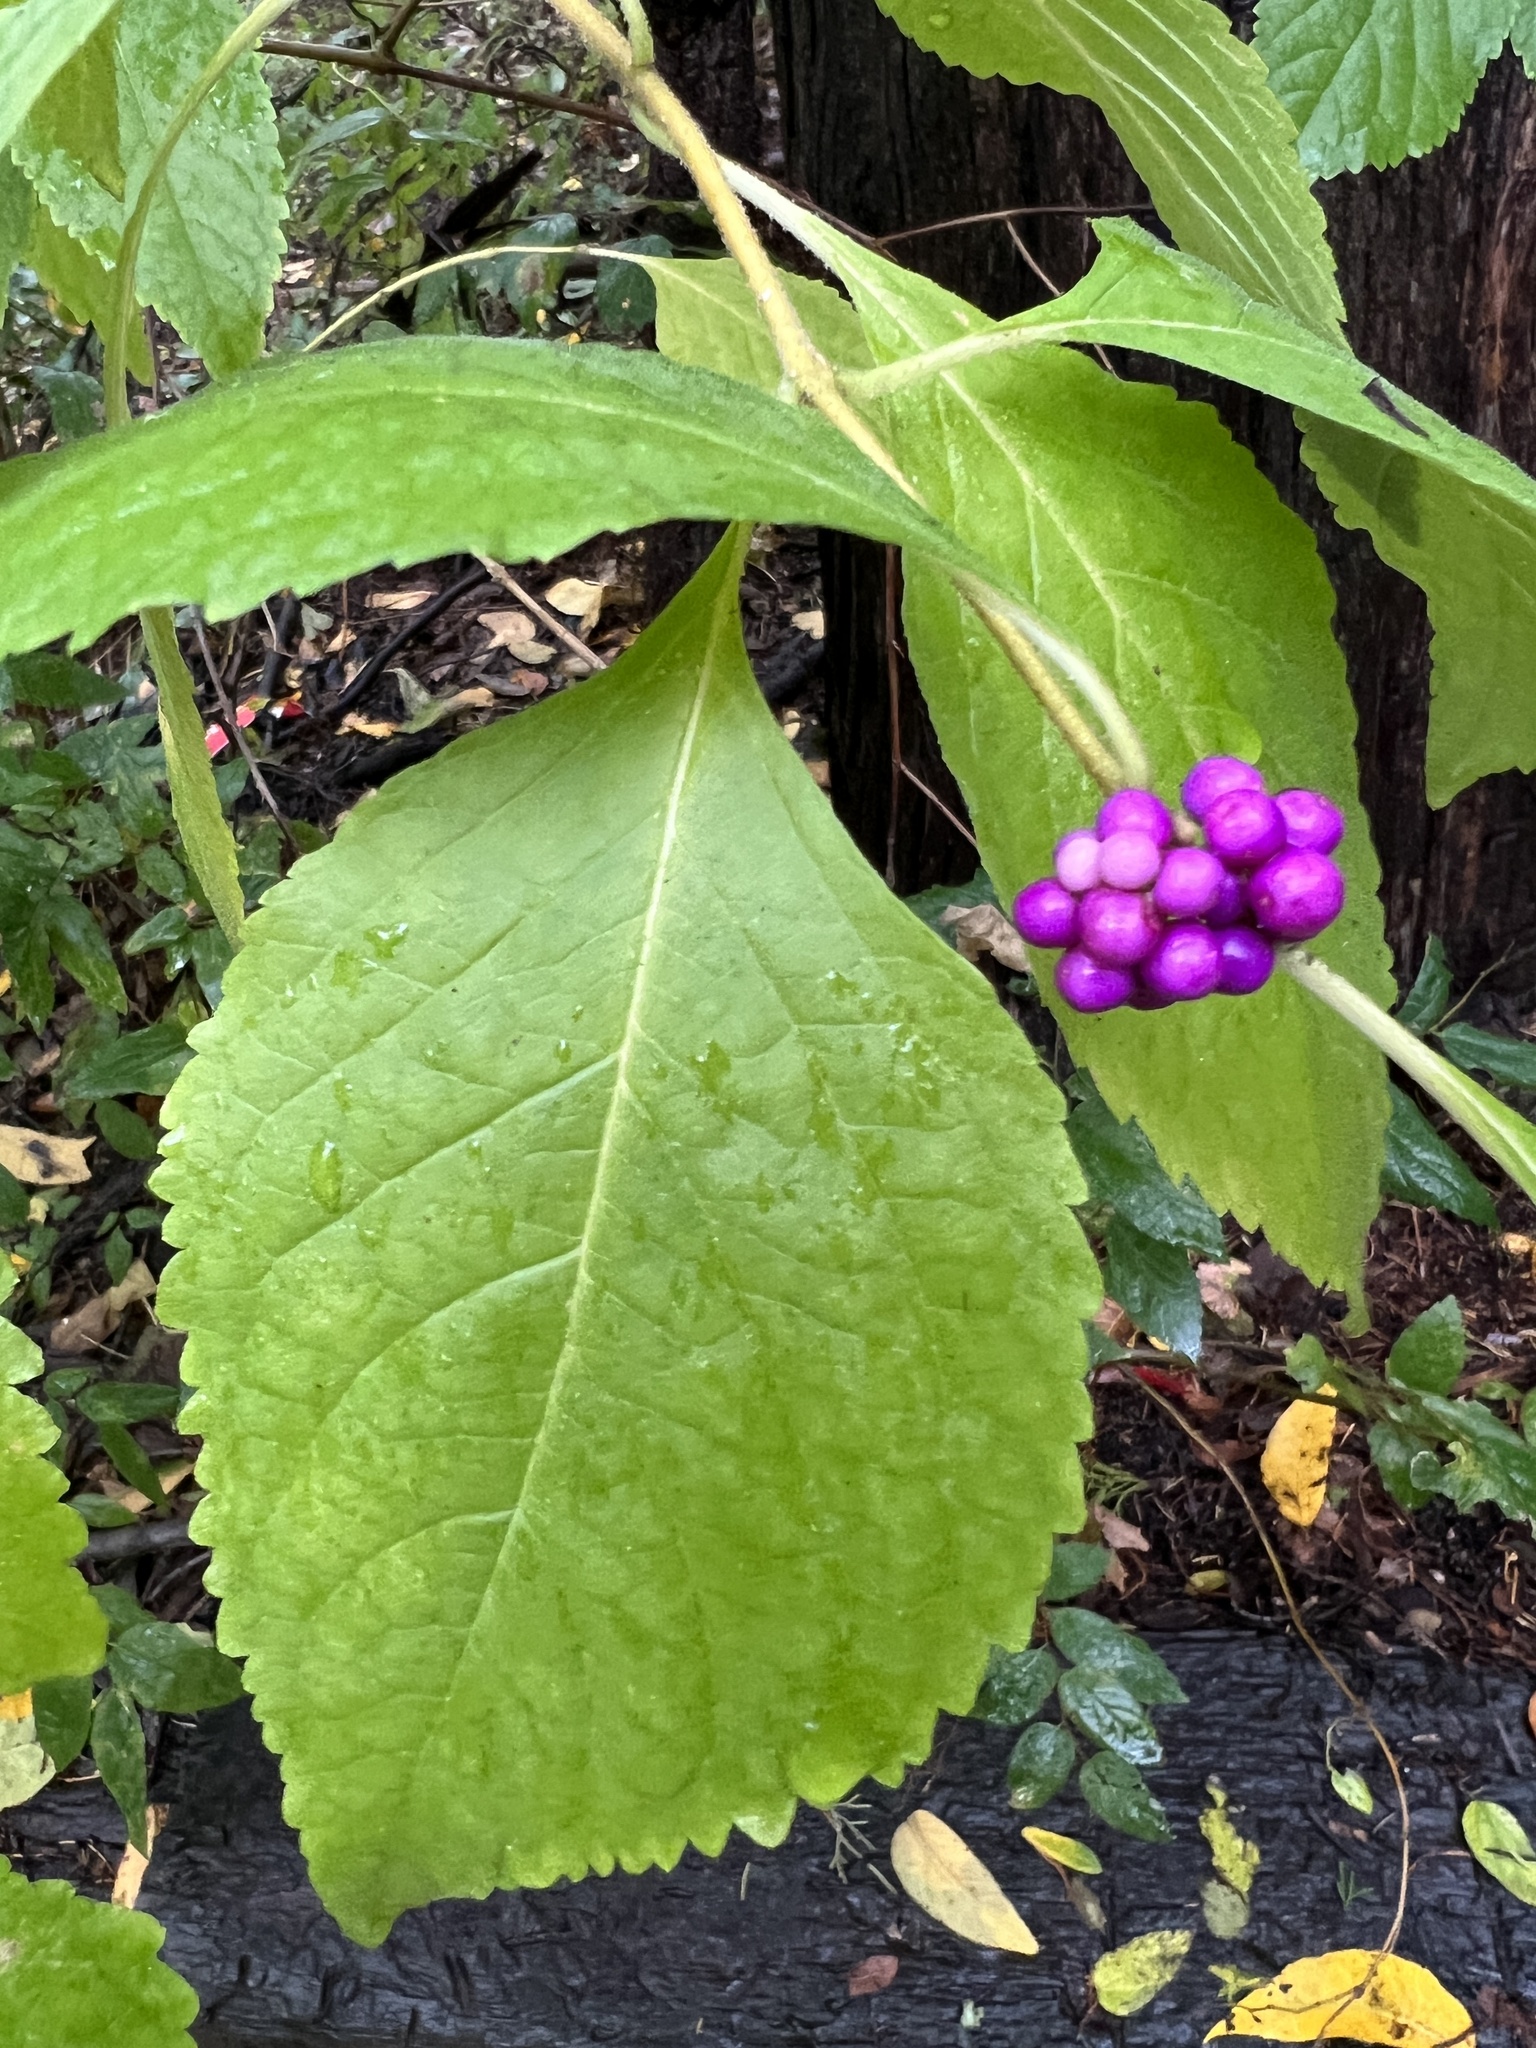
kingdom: Plantae
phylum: Tracheophyta
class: Magnoliopsida
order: Lamiales
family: Lamiaceae
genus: Callicarpa
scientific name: Callicarpa americana
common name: American beautyberry
